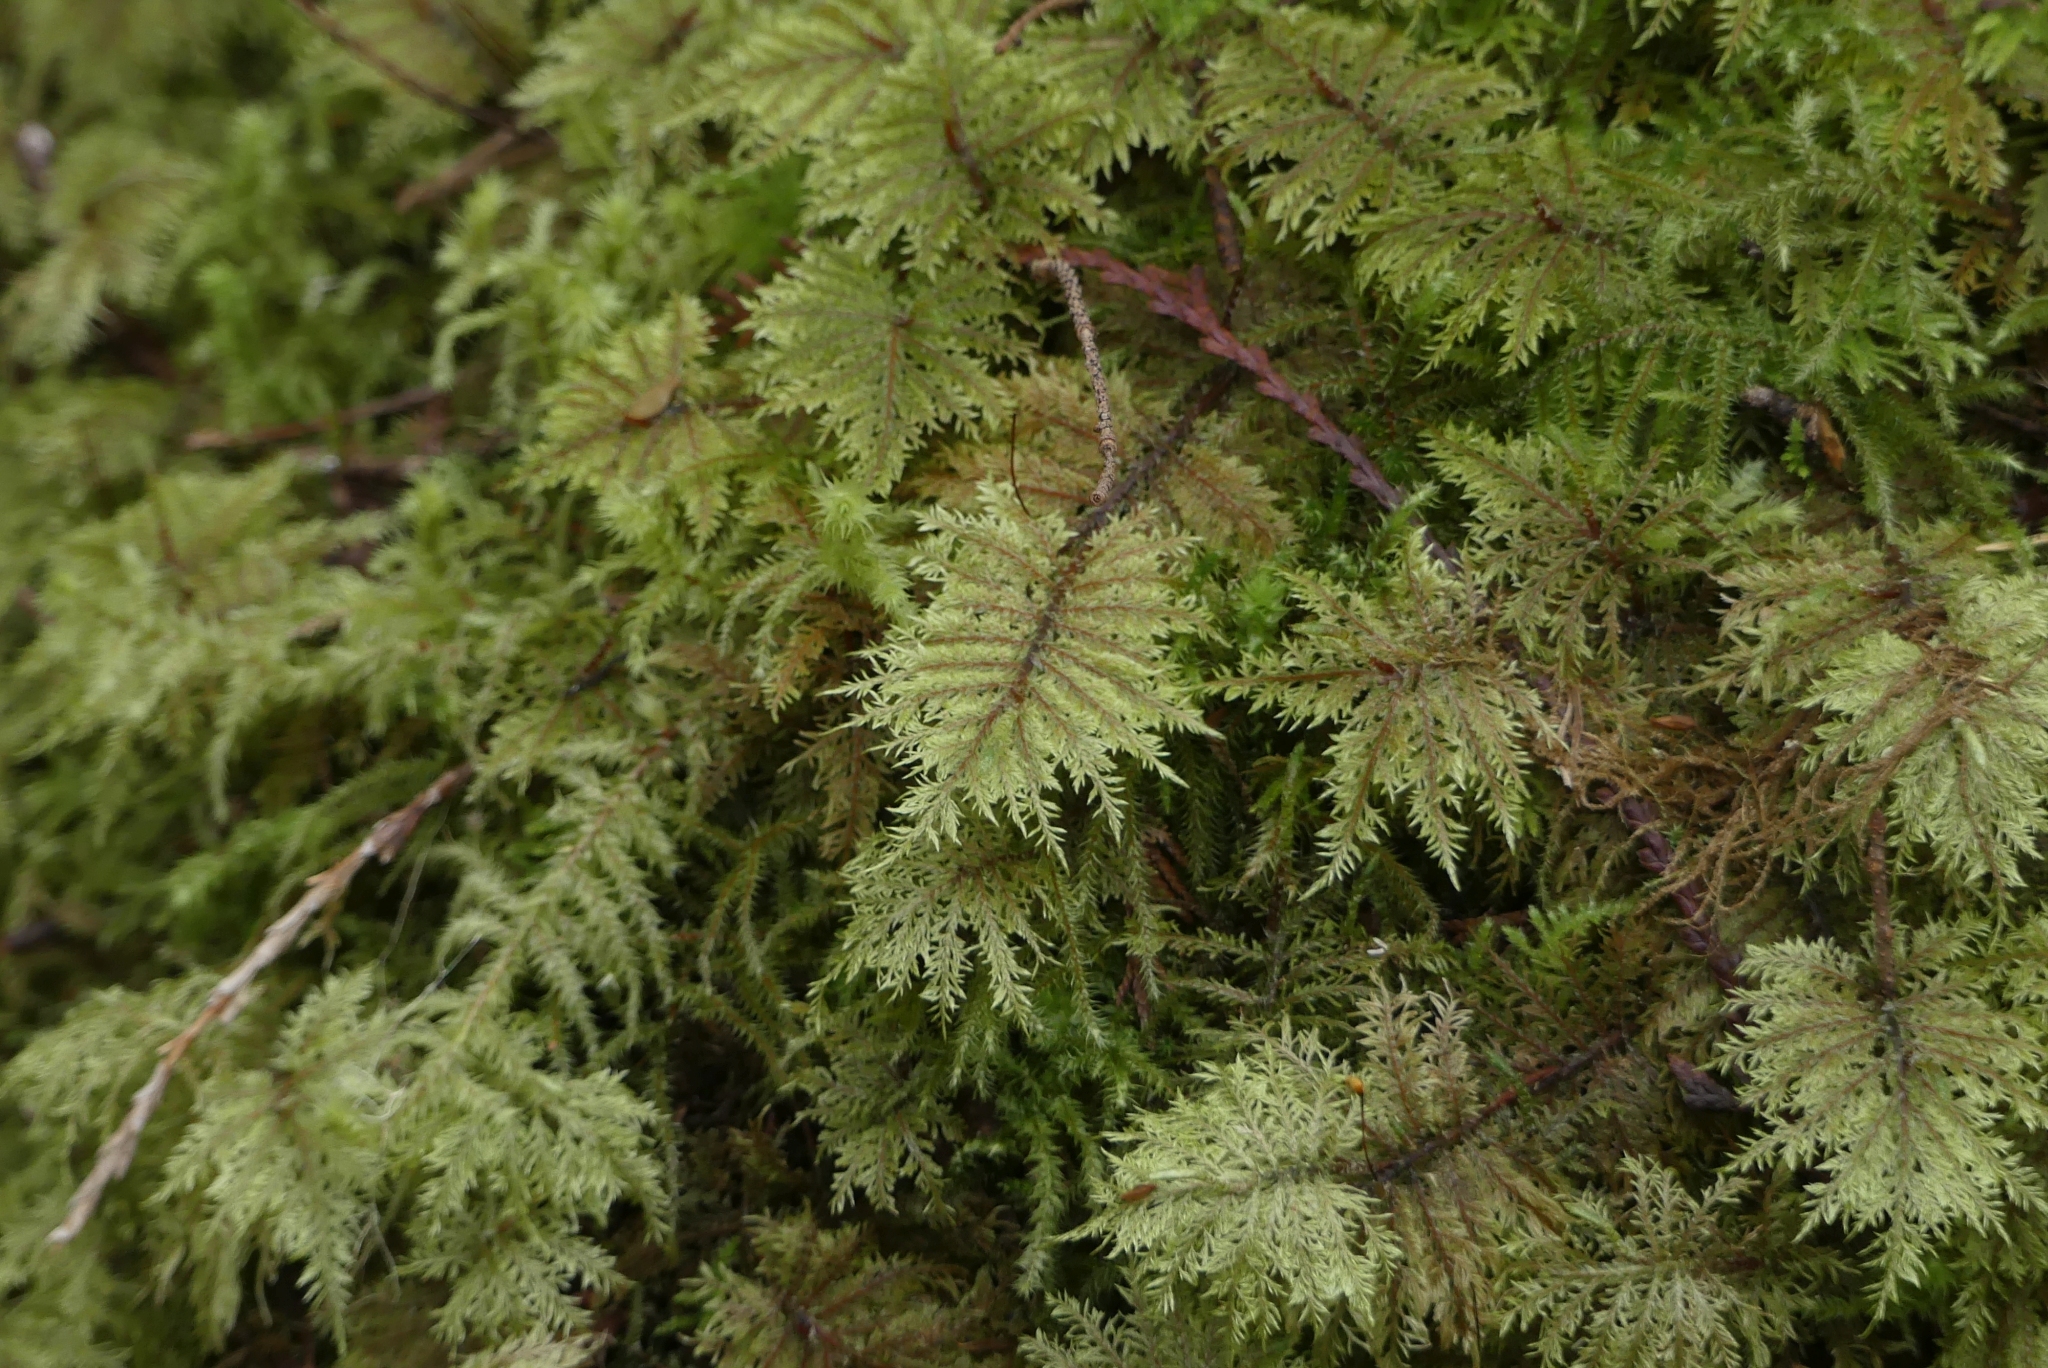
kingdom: Plantae
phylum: Bryophyta
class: Bryopsida
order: Hypnales
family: Hylocomiaceae
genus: Hylocomium
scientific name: Hylocomium splendens
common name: Stairstep moss
